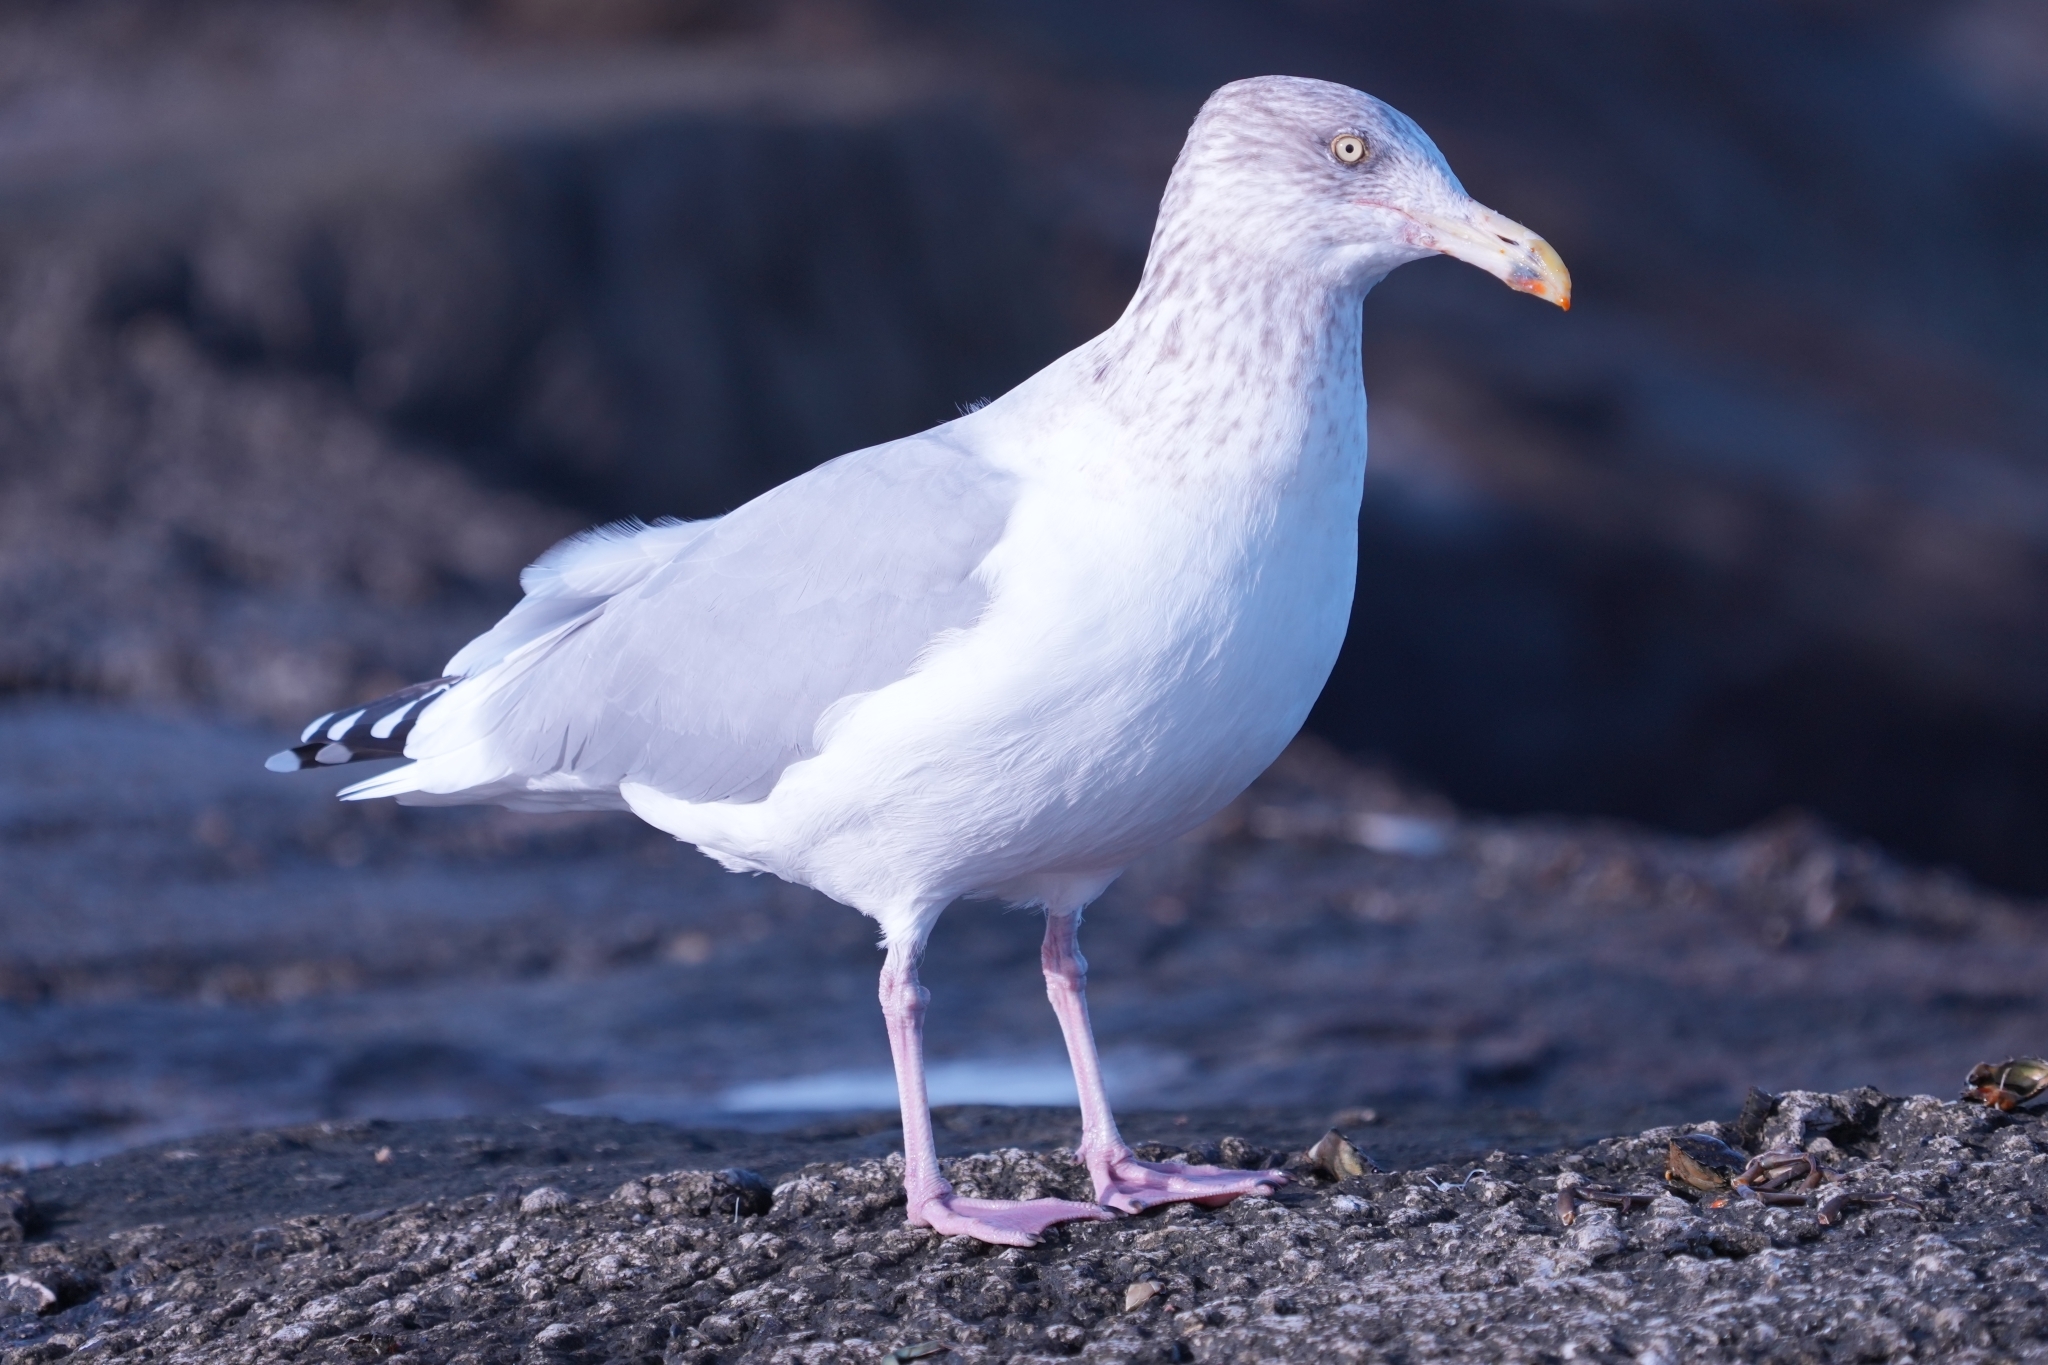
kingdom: Animalia
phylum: Chordata
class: Aves
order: Charadriiformes
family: Laridae
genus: Larus
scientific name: Larus argentatus
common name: Herring gull
